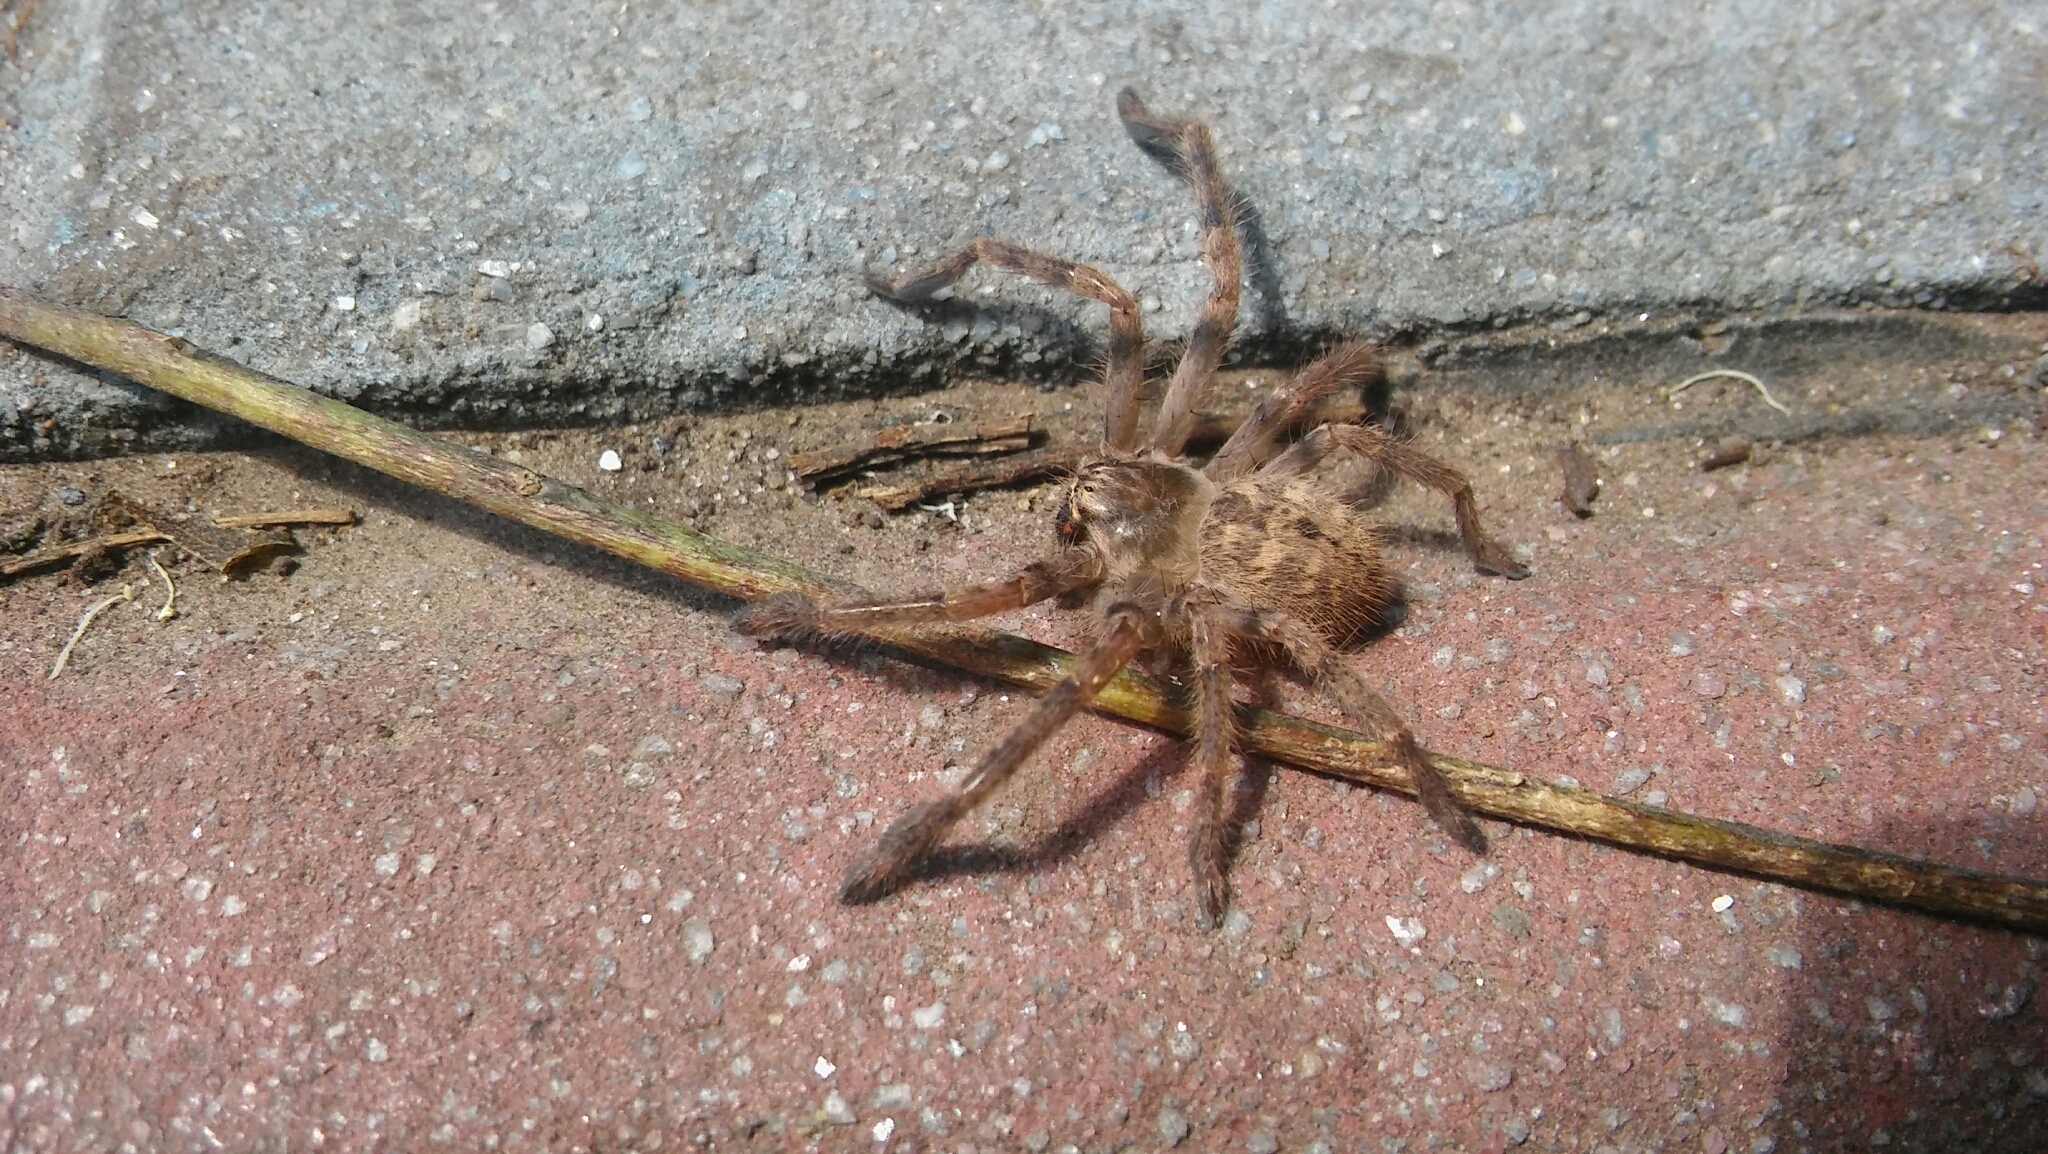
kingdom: Animalia
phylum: Arthropoda
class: Arachnida
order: Araneae
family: Sparassidae
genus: Polybetes
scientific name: Polybetes pythagoricus
